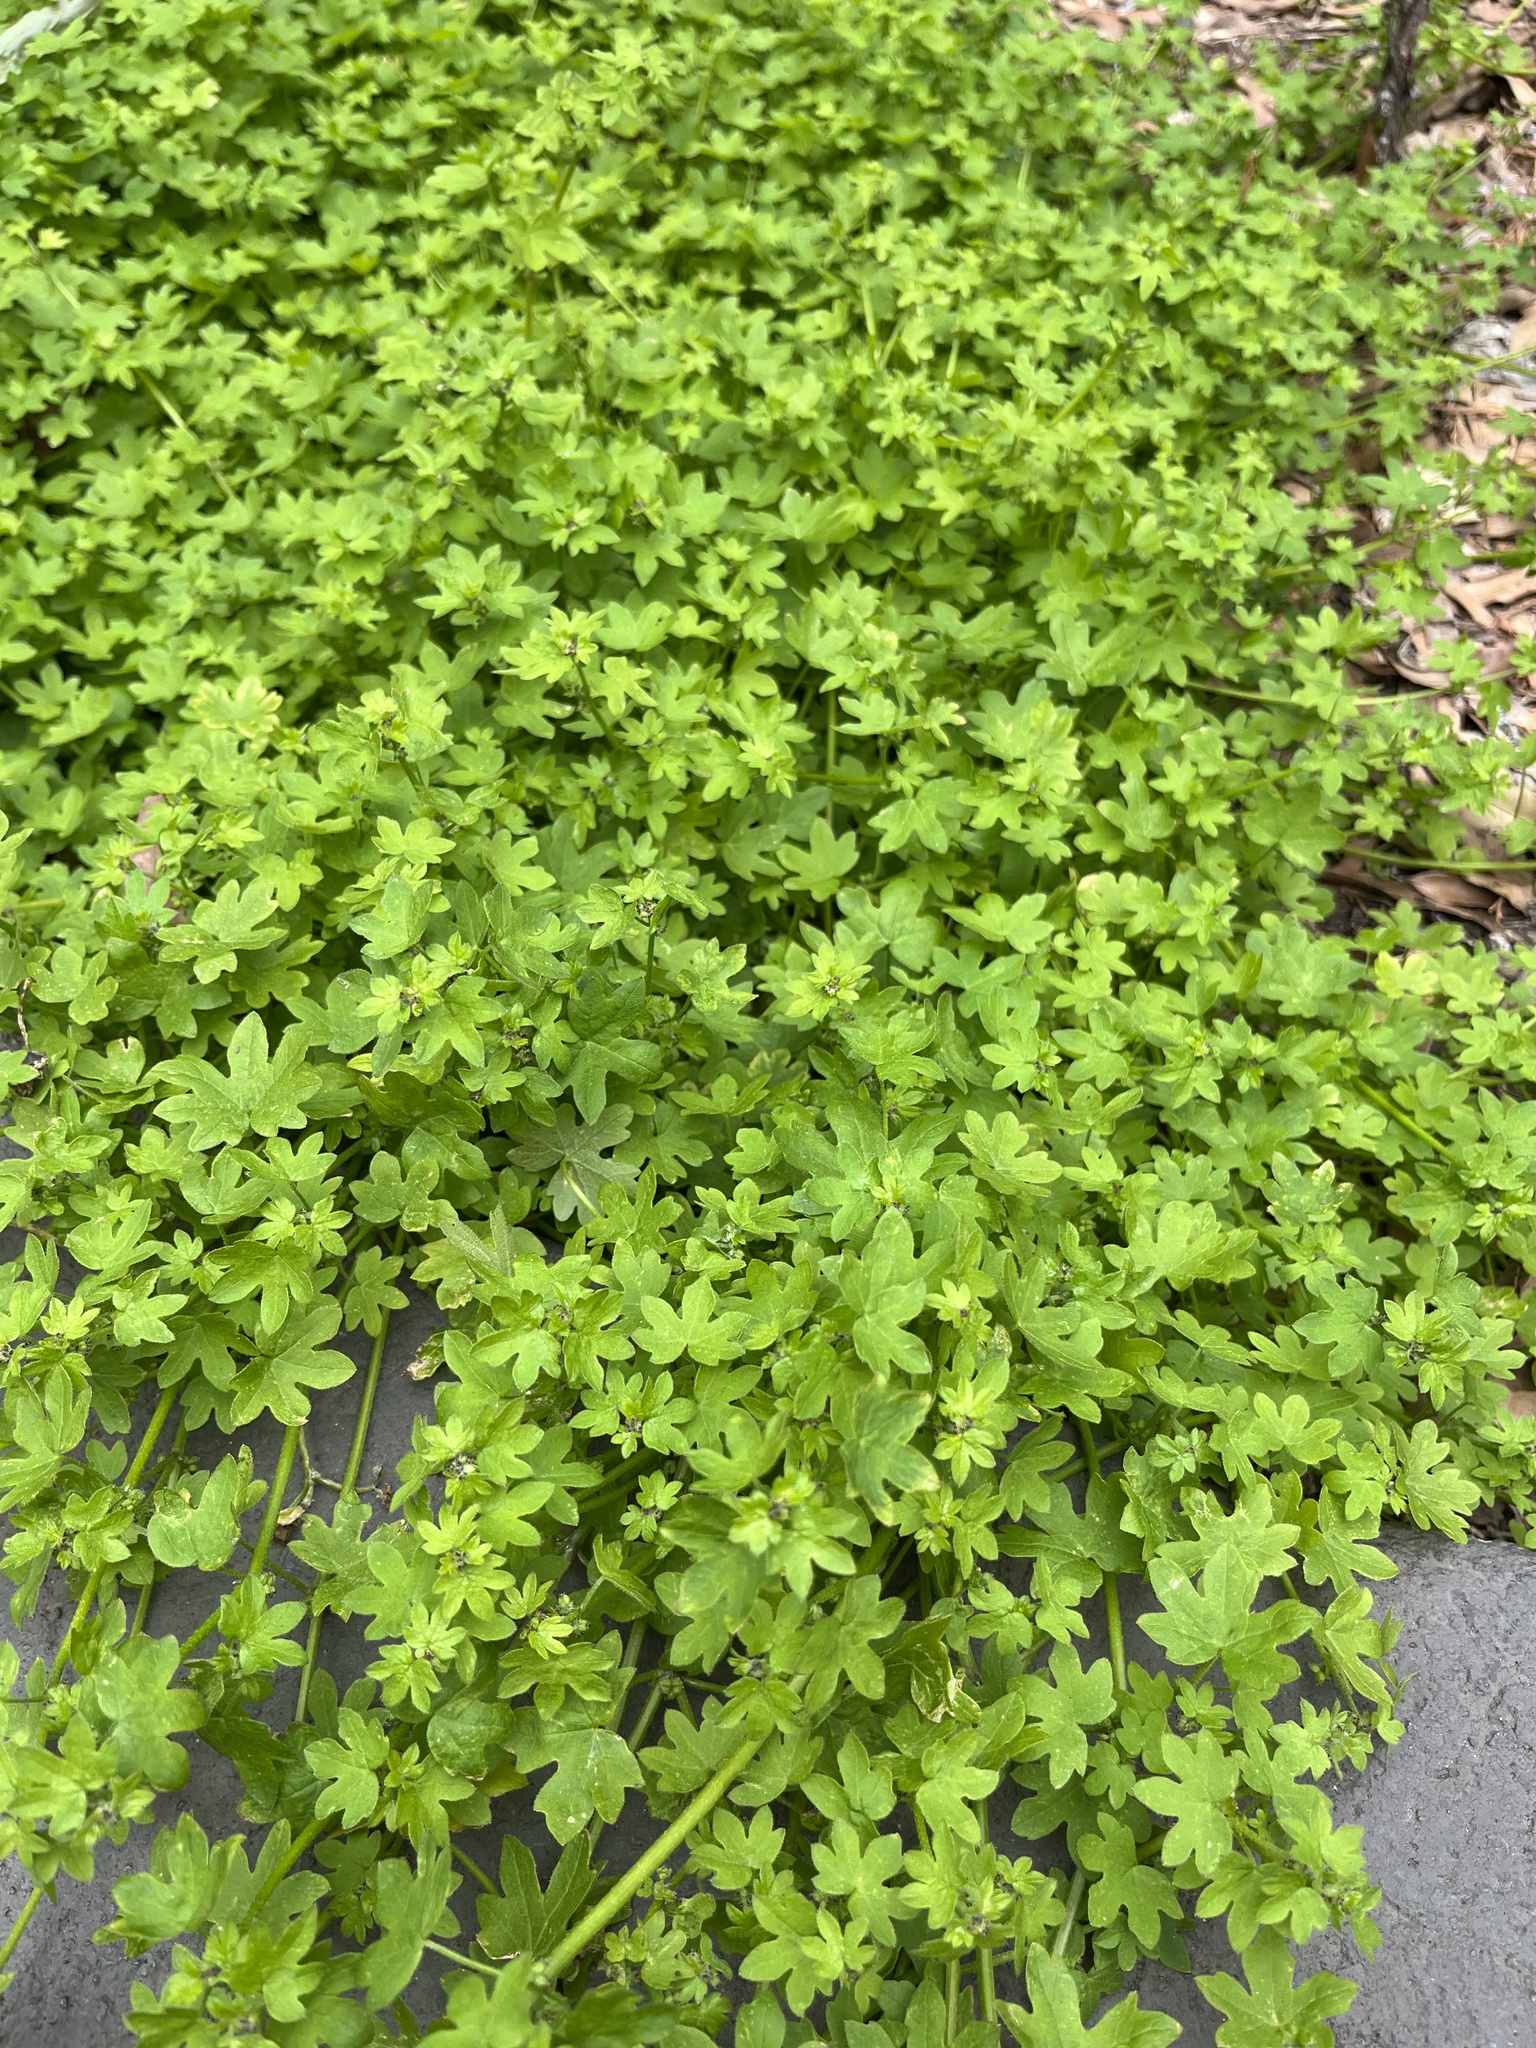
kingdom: Plantae
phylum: Tracheophyta
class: Magnoliopsida
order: Apiales
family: Apiaceae
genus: Bowlesia
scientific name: Bowlesia incana
